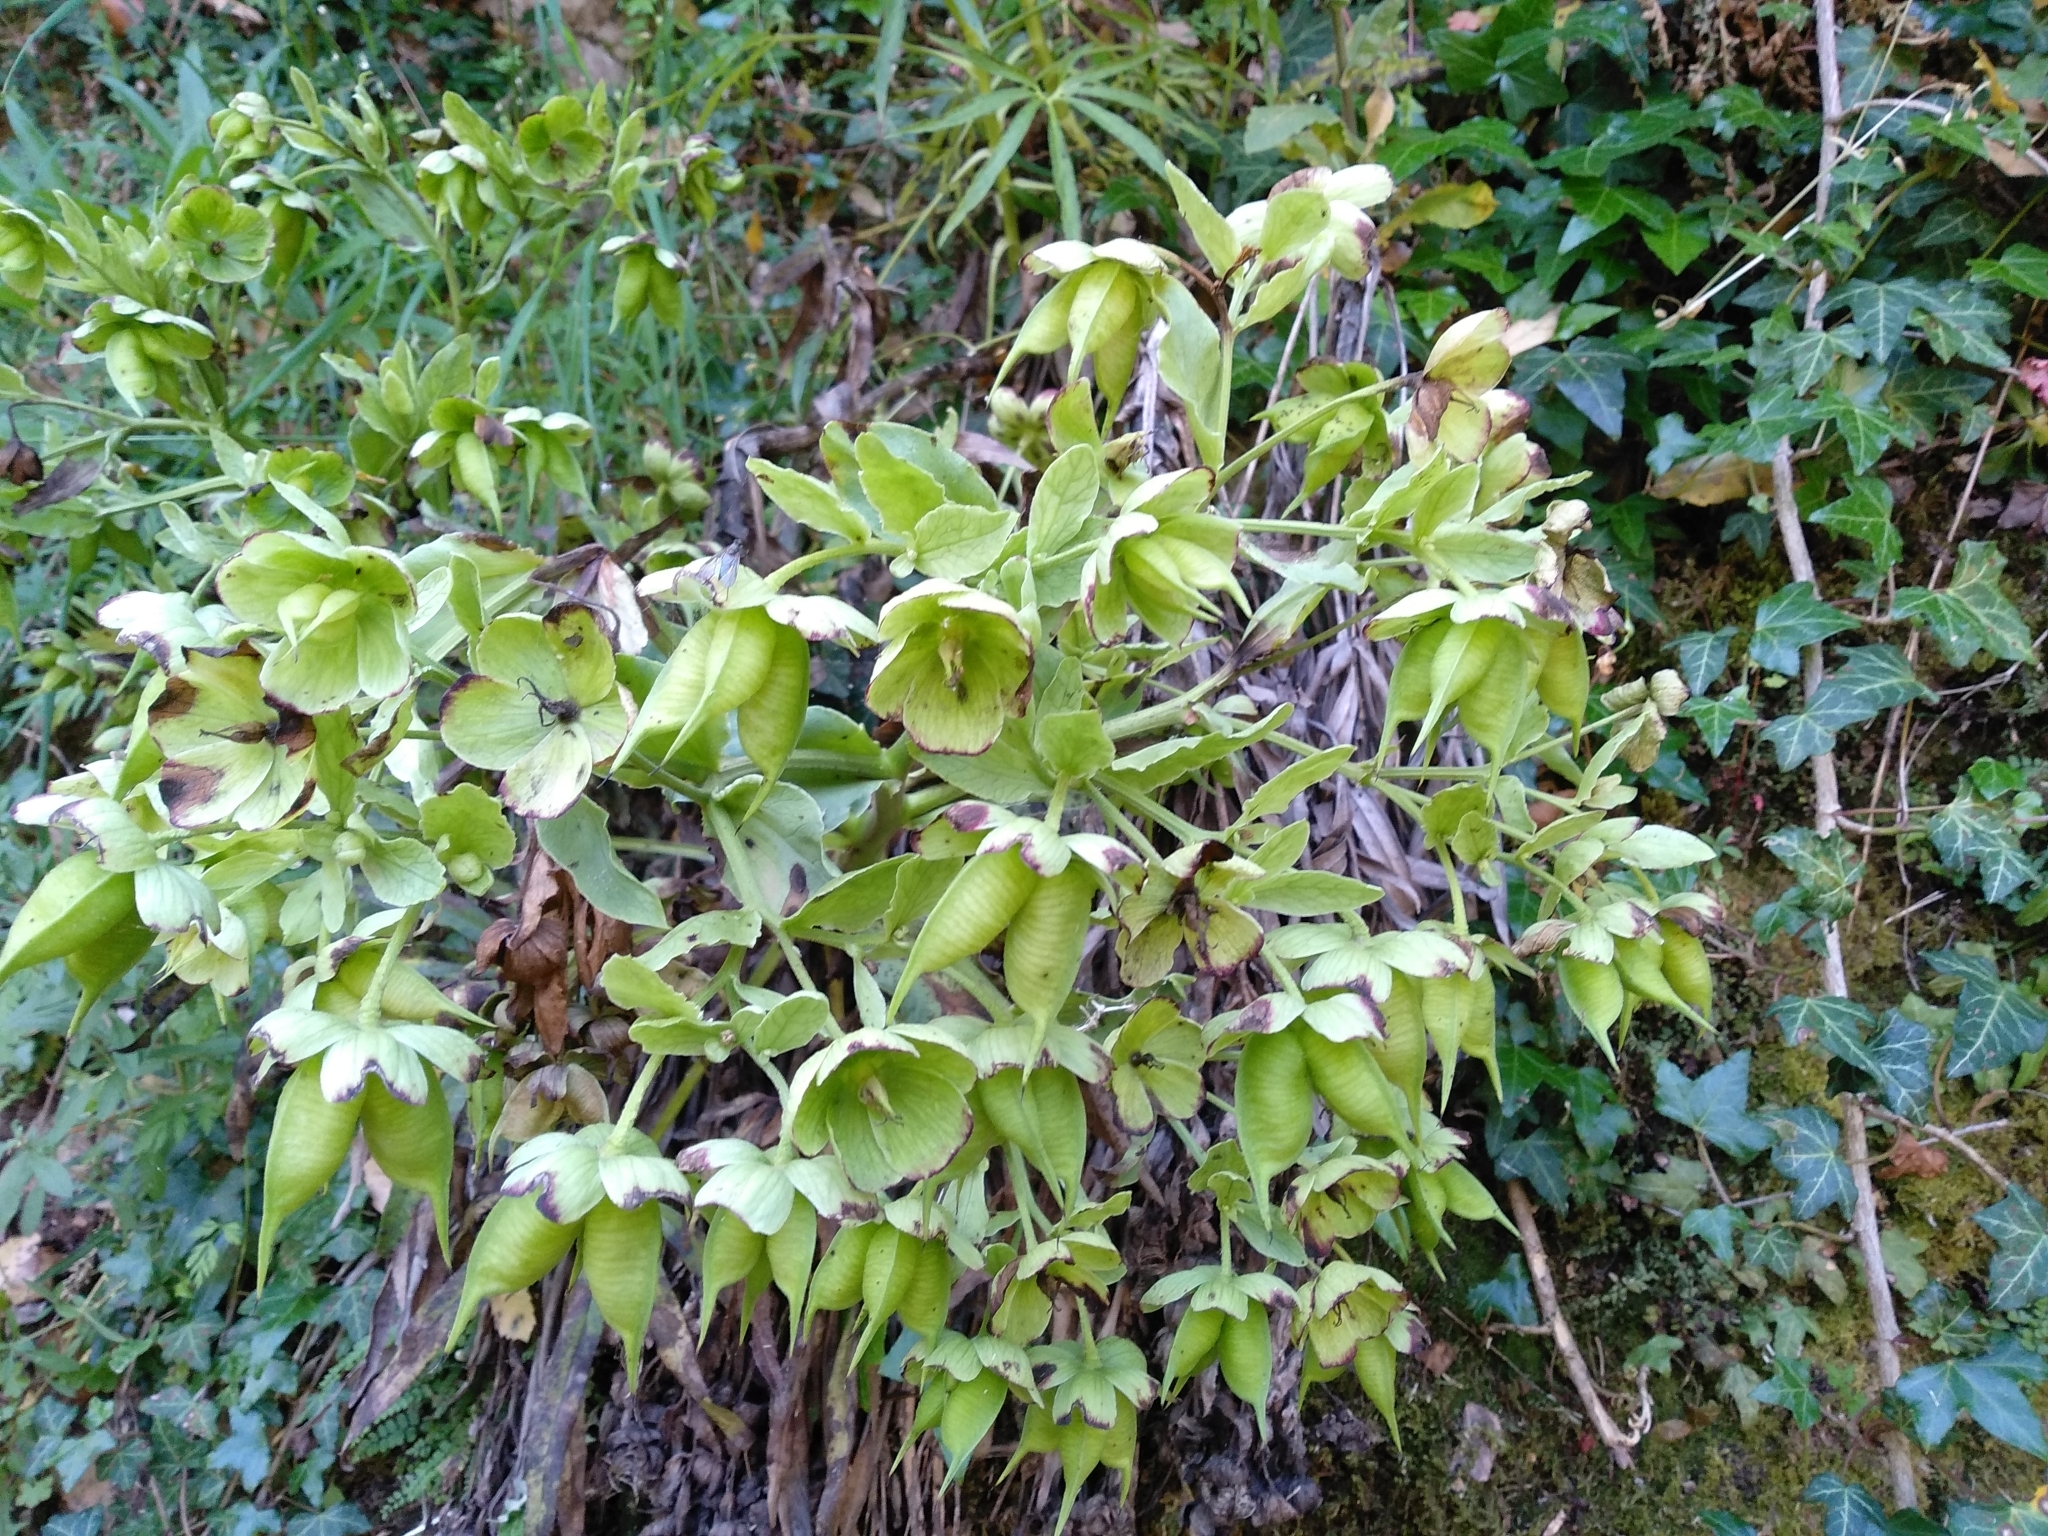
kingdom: Plantae
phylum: Tracheophyta
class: Magnoliopsida
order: Ranunculales
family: Ranunculaceae
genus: Helleborus
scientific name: Helleborus foetidus
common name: Stinking hellebore
